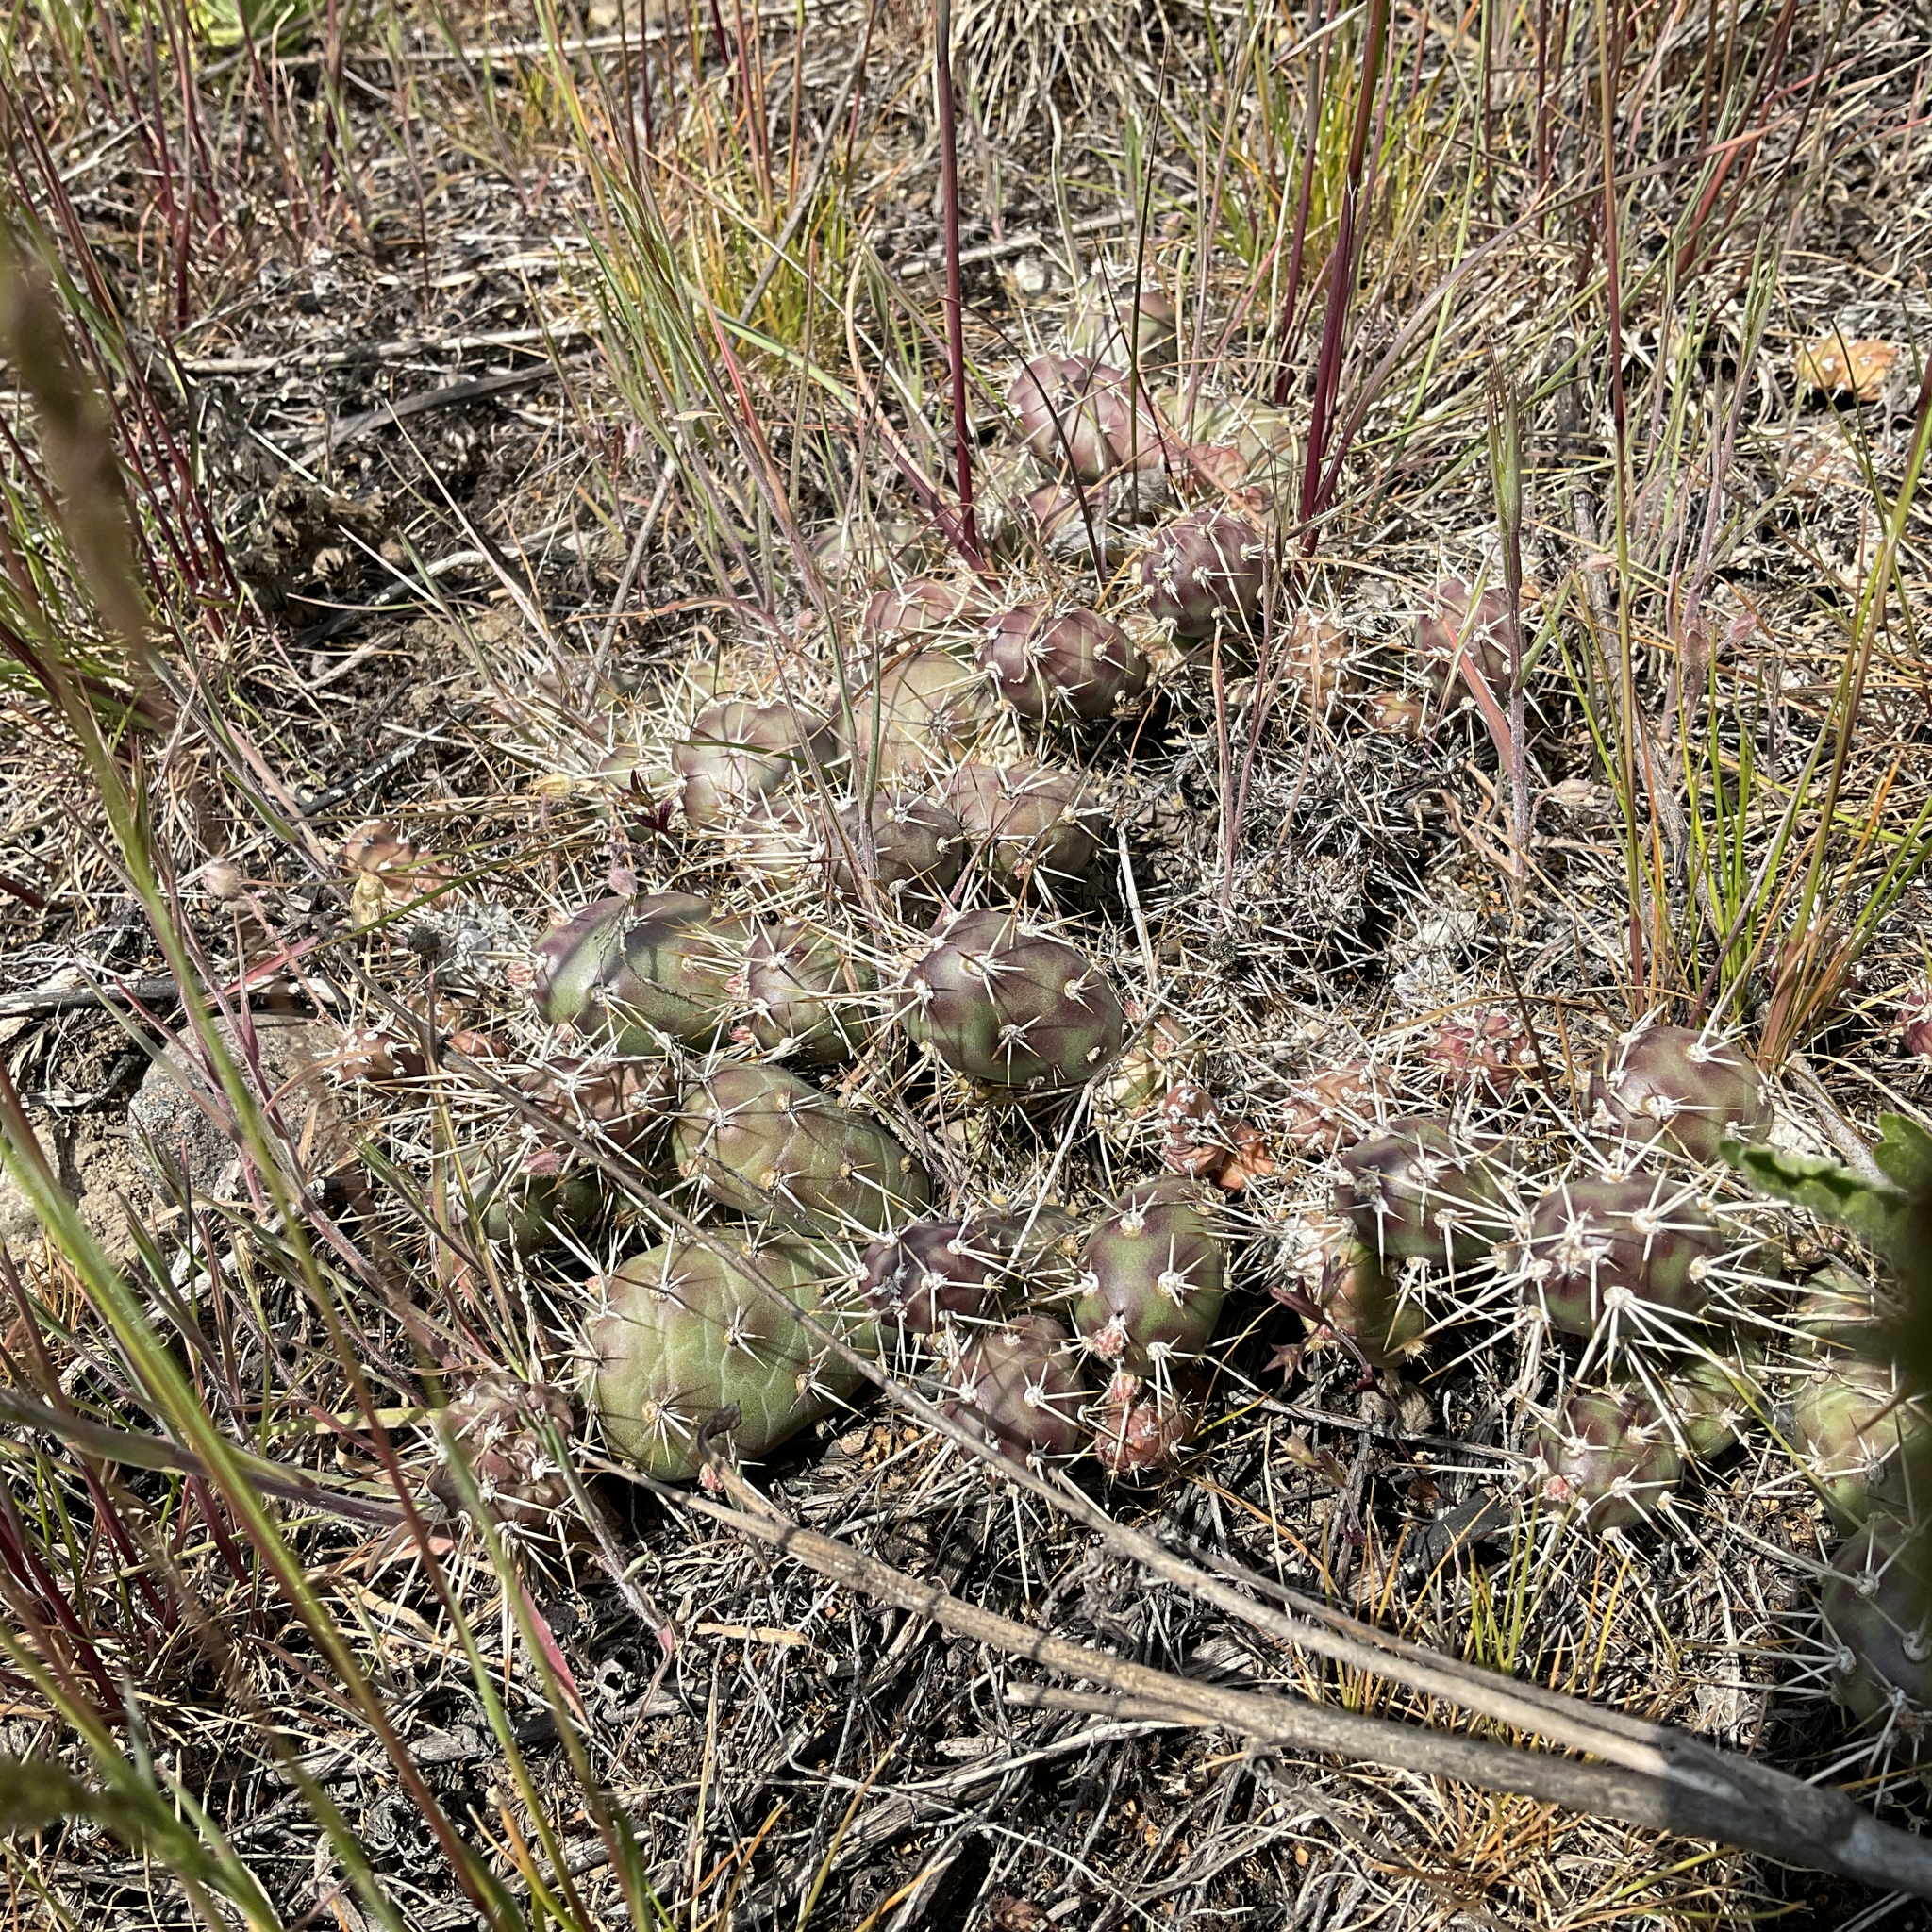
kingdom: Plantae
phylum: Tracheophyta
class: Magnoliopsida
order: Caryophyllales
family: Cactaceae
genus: Opuntia
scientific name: Opuntia fragilis
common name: Brittle cactus
